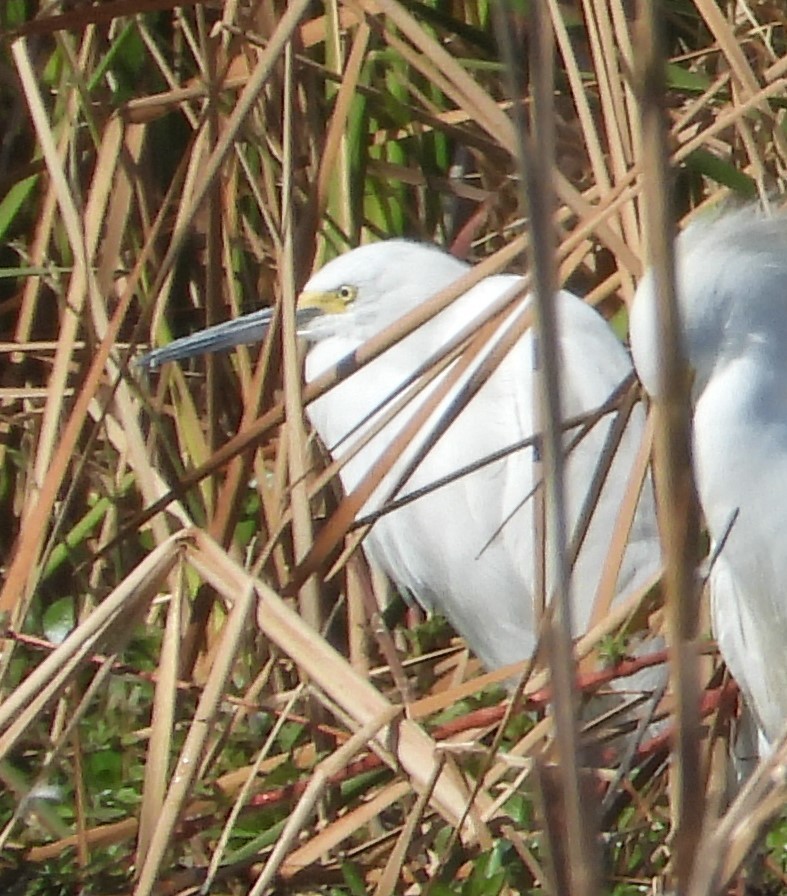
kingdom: Animalia
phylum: Chordata
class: Aves
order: Pelecaniformes
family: Ardeidae
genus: Egretta
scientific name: Egretta thula
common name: Snowy egret
